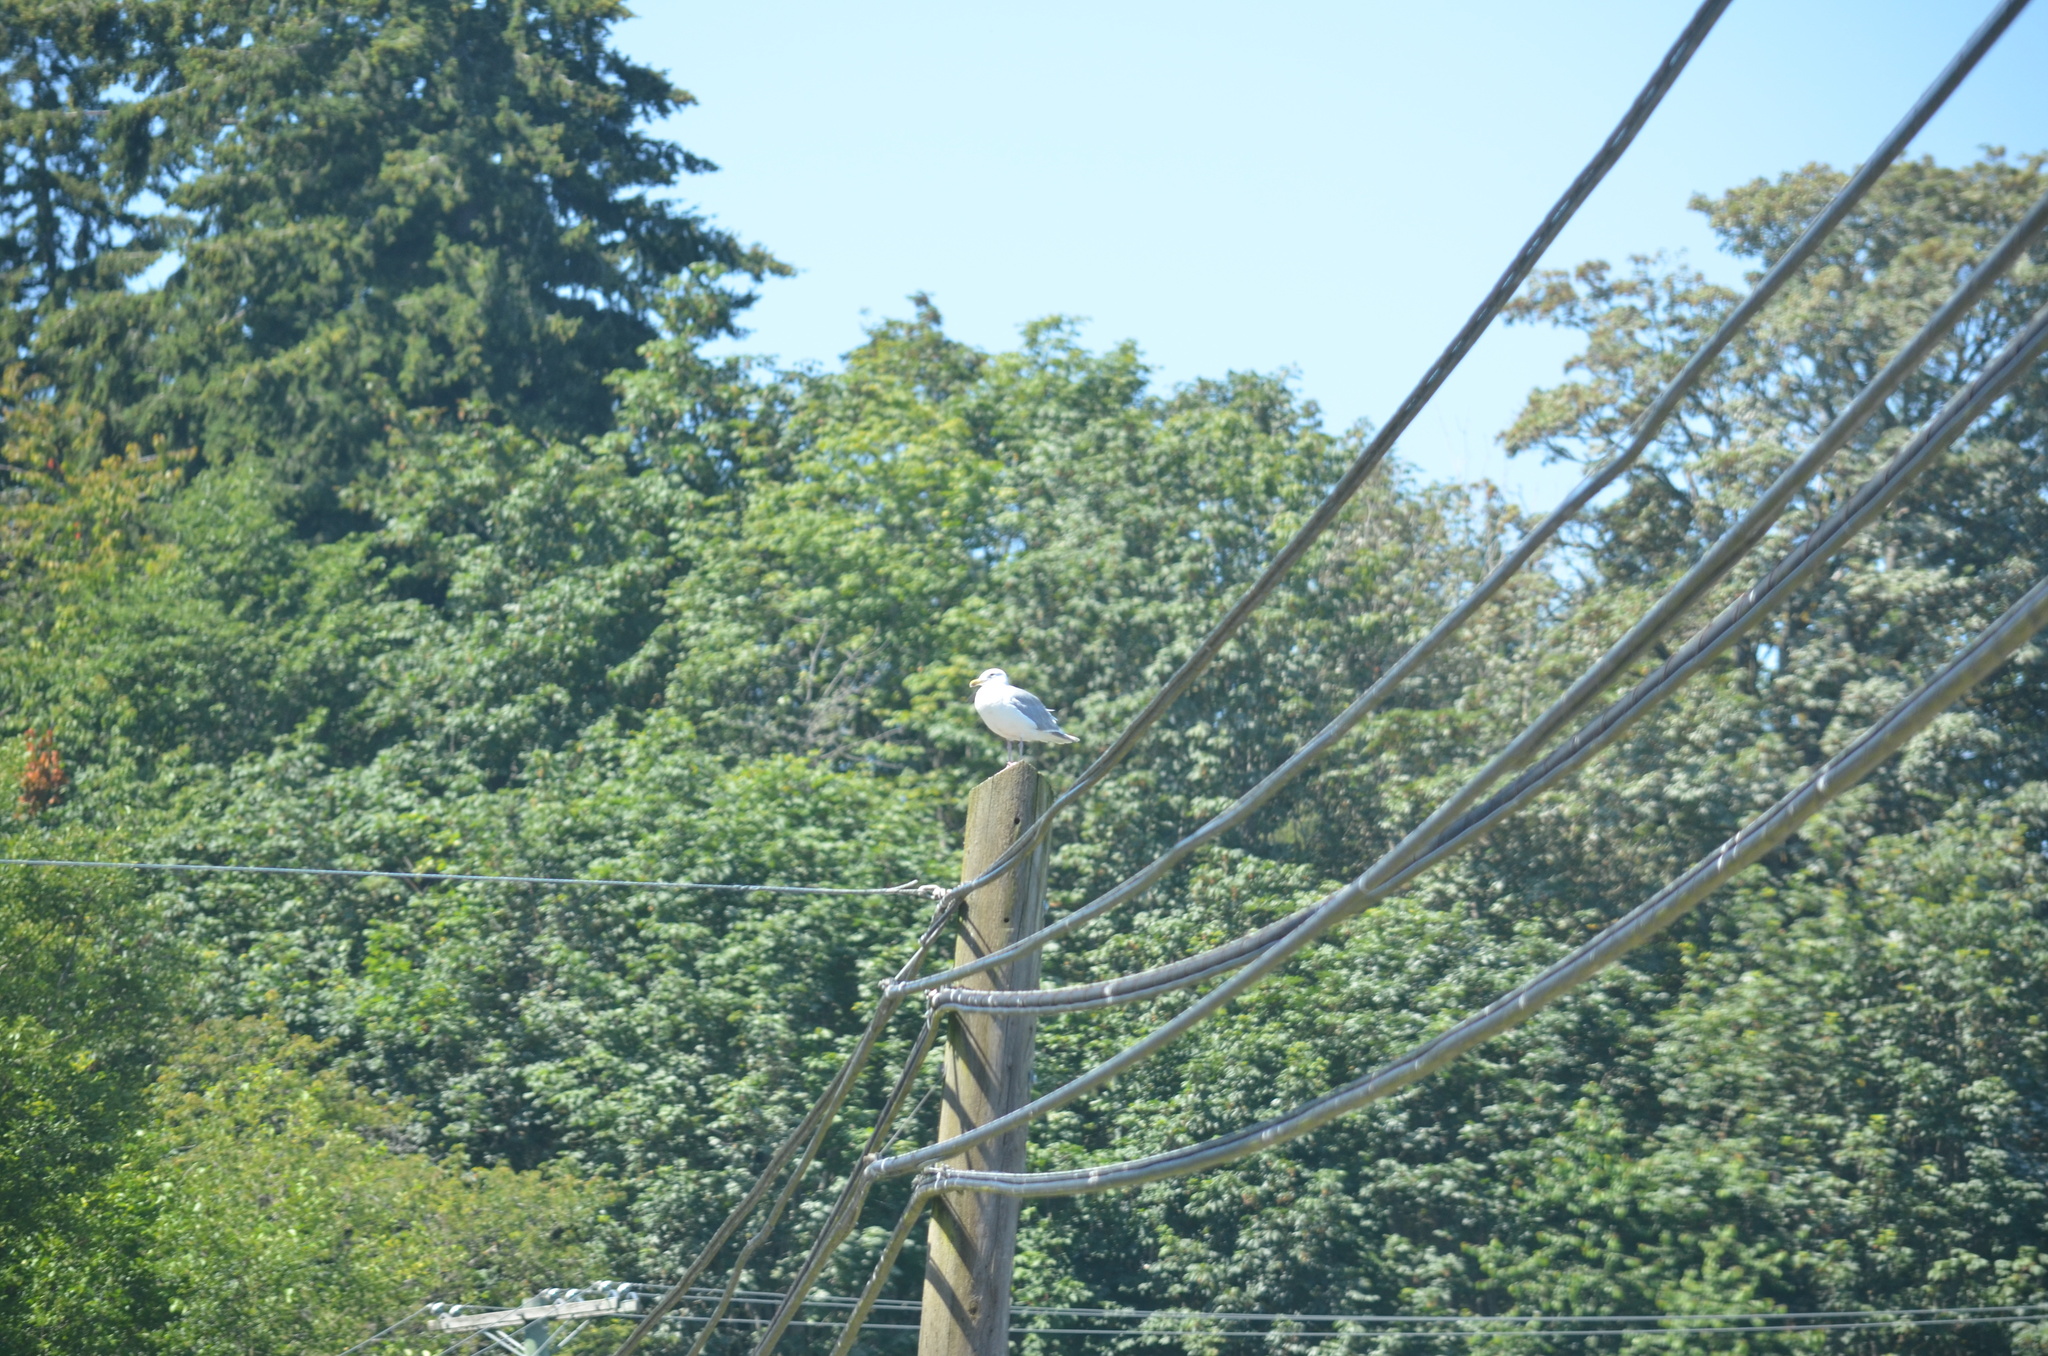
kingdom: Animalia
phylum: Chordata
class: Aves
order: Charadriiformes
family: Laridae
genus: Larus
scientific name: Larus glaucescens
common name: Glaucous-winged gull
